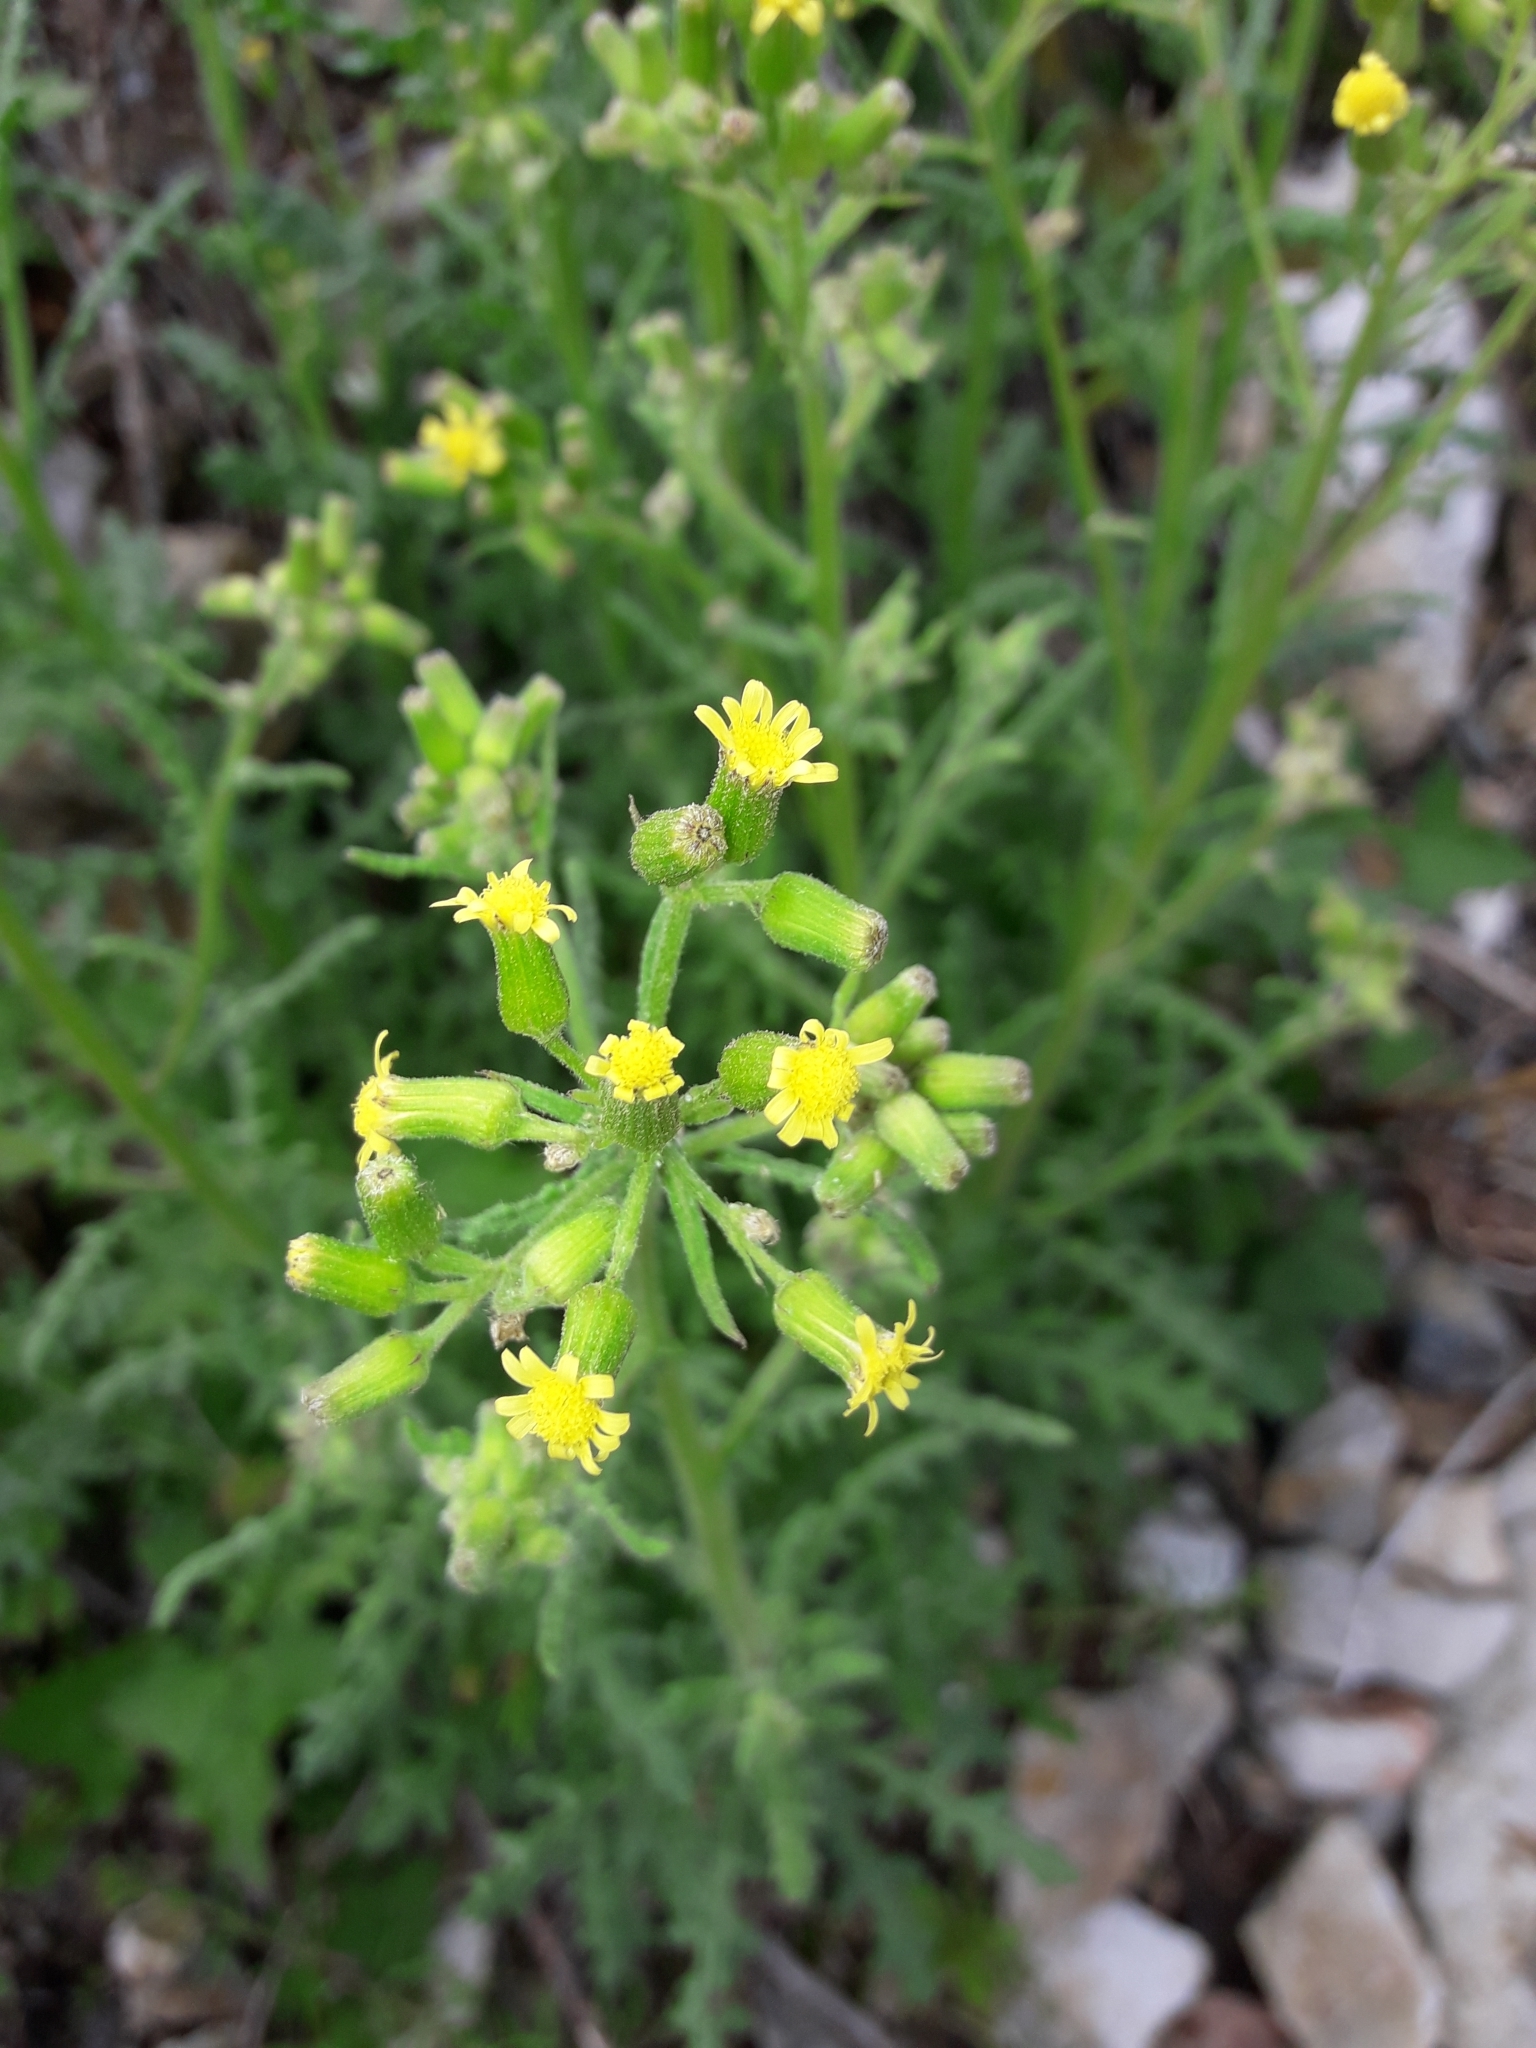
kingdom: Plantae
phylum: Tracheophyta
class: Magnoliopsida
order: Asterales
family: Asteraceae
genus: Senecio
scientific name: Senecio sylvaticus
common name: Woodland ragwort
